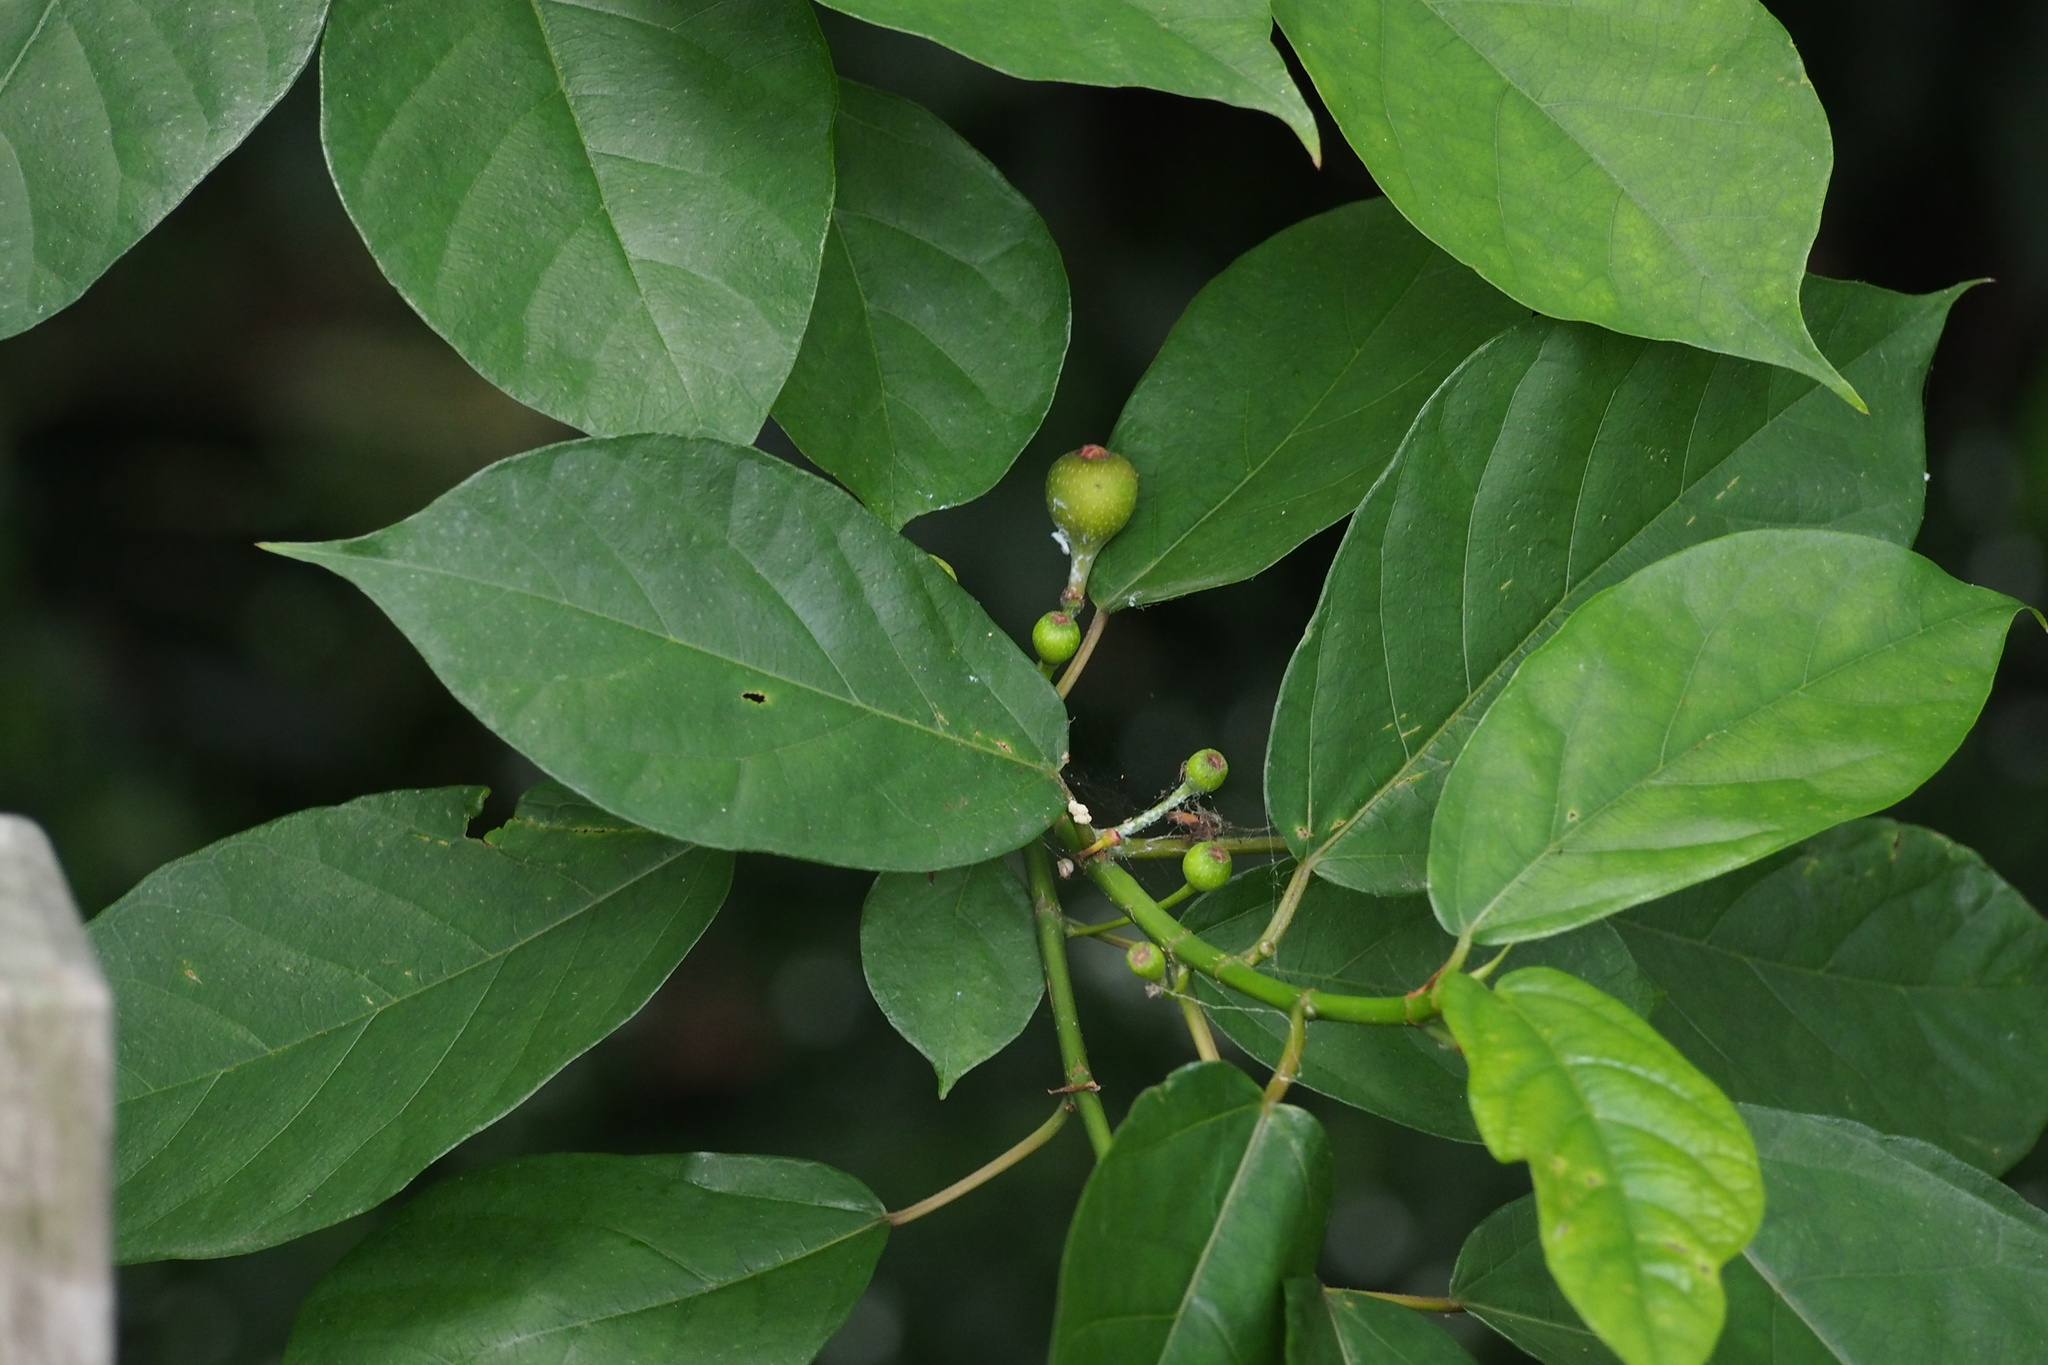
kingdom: Plantae
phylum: Tracheophyta
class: Magnoliopsida
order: Rosales
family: Moraceae
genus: Ficus
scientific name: Ficus erecta
